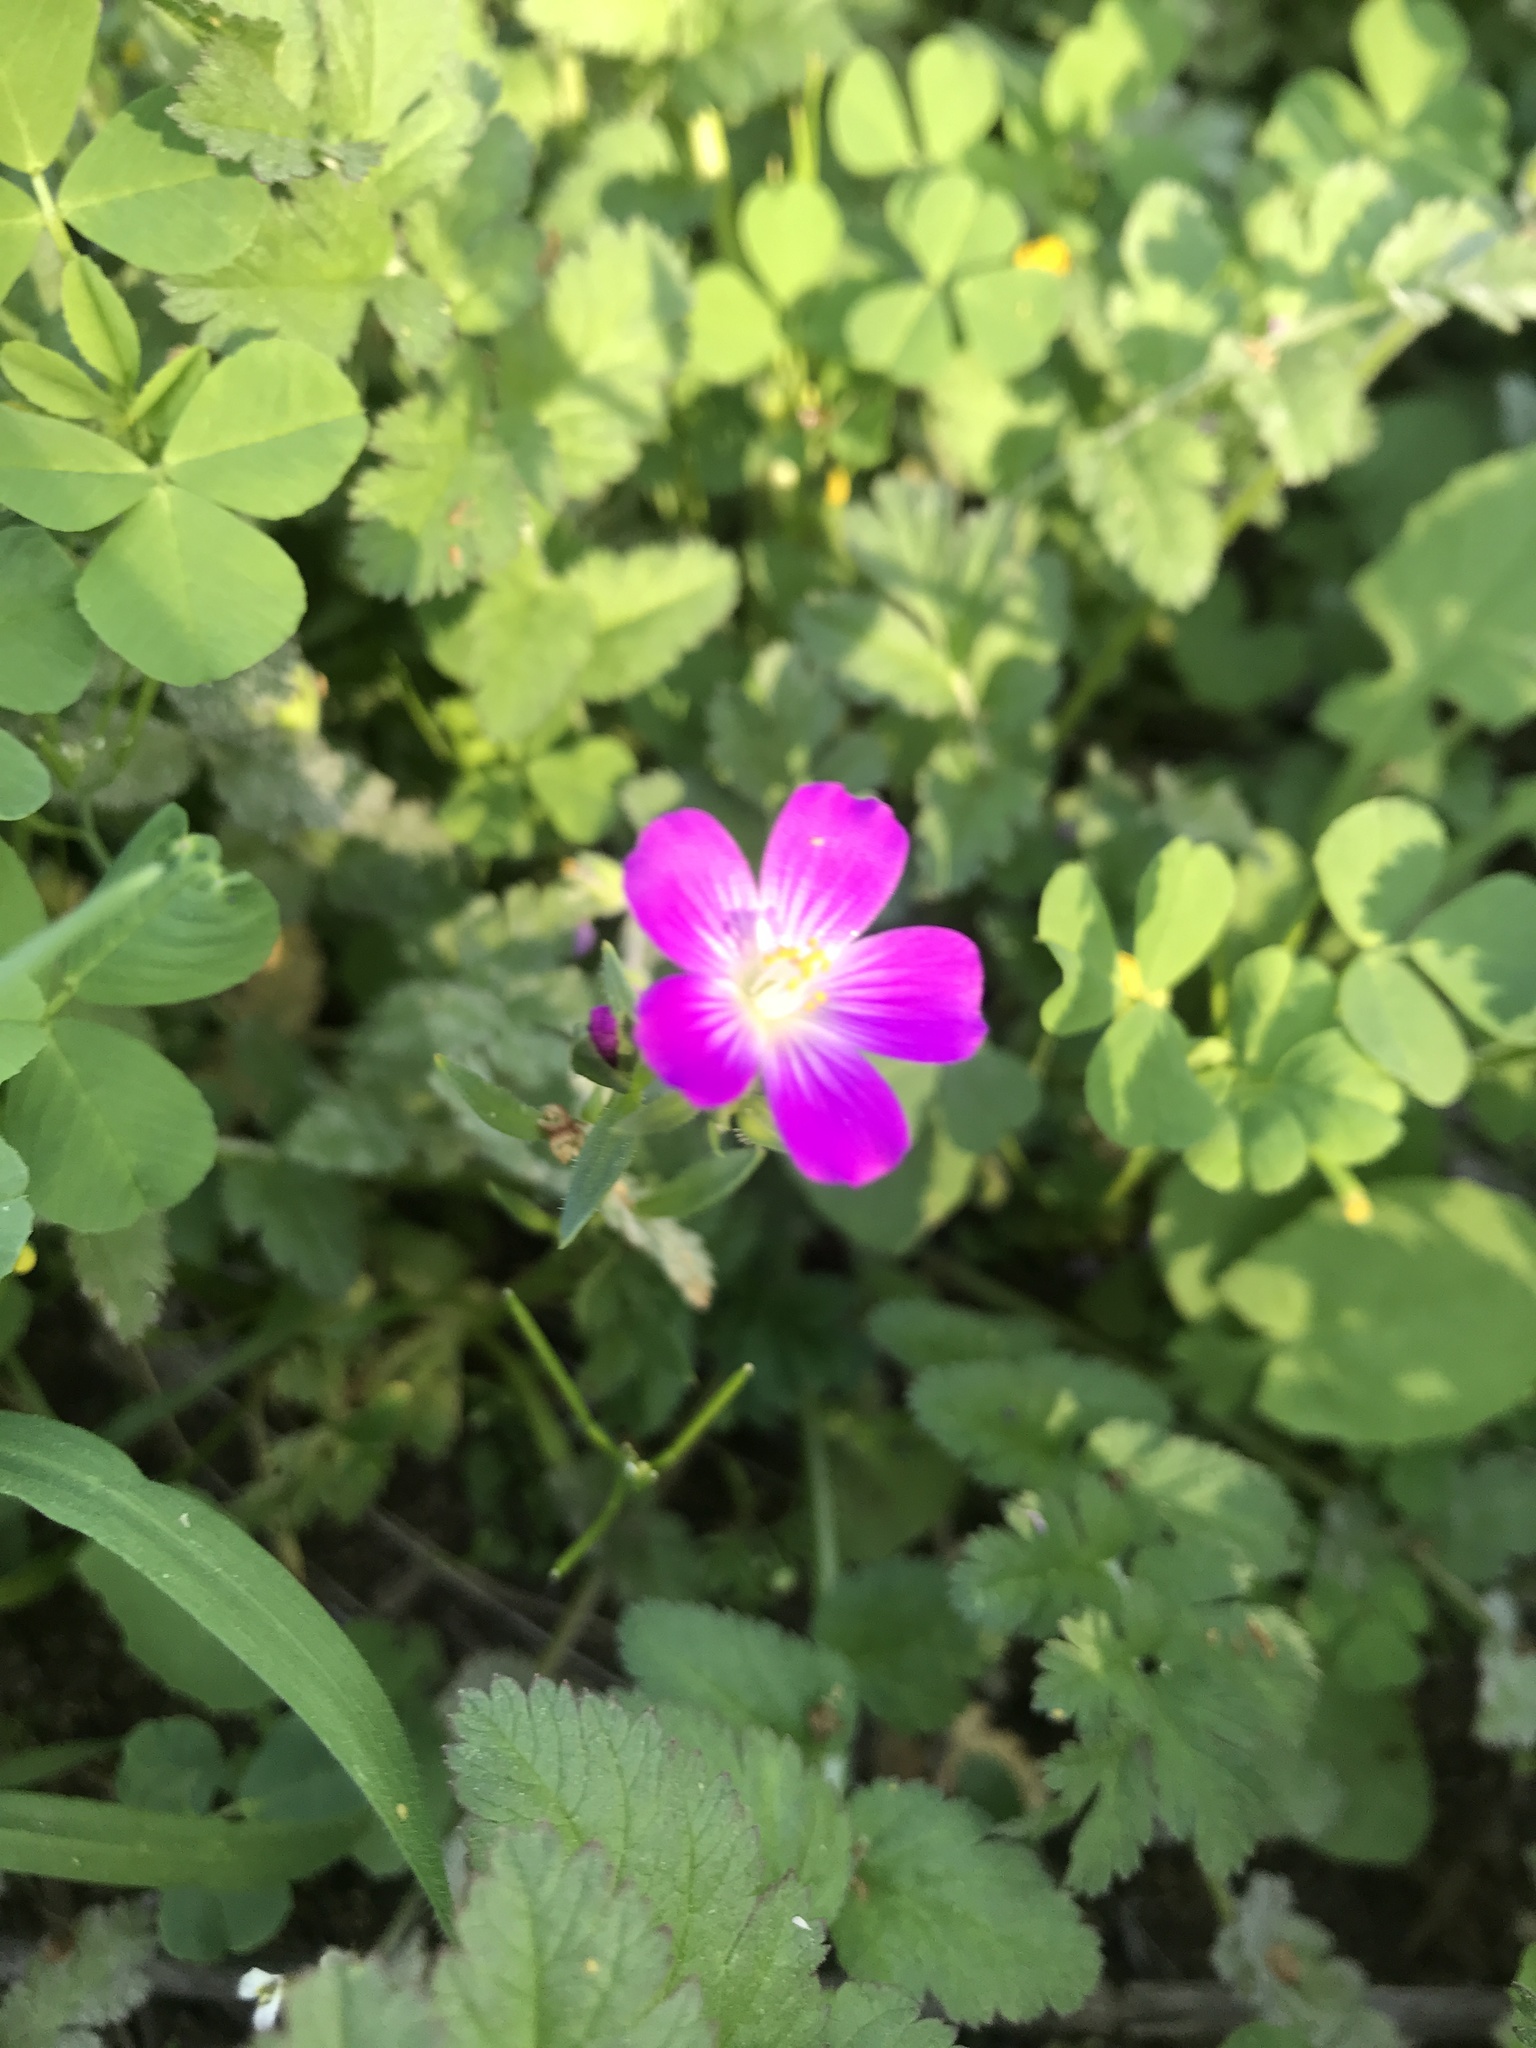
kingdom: Plantae
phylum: Tracheophyta
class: Magnoliopsida
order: Caryophyllales
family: Montiaceae
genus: Calandrinia
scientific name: Calandrinia menziesii
